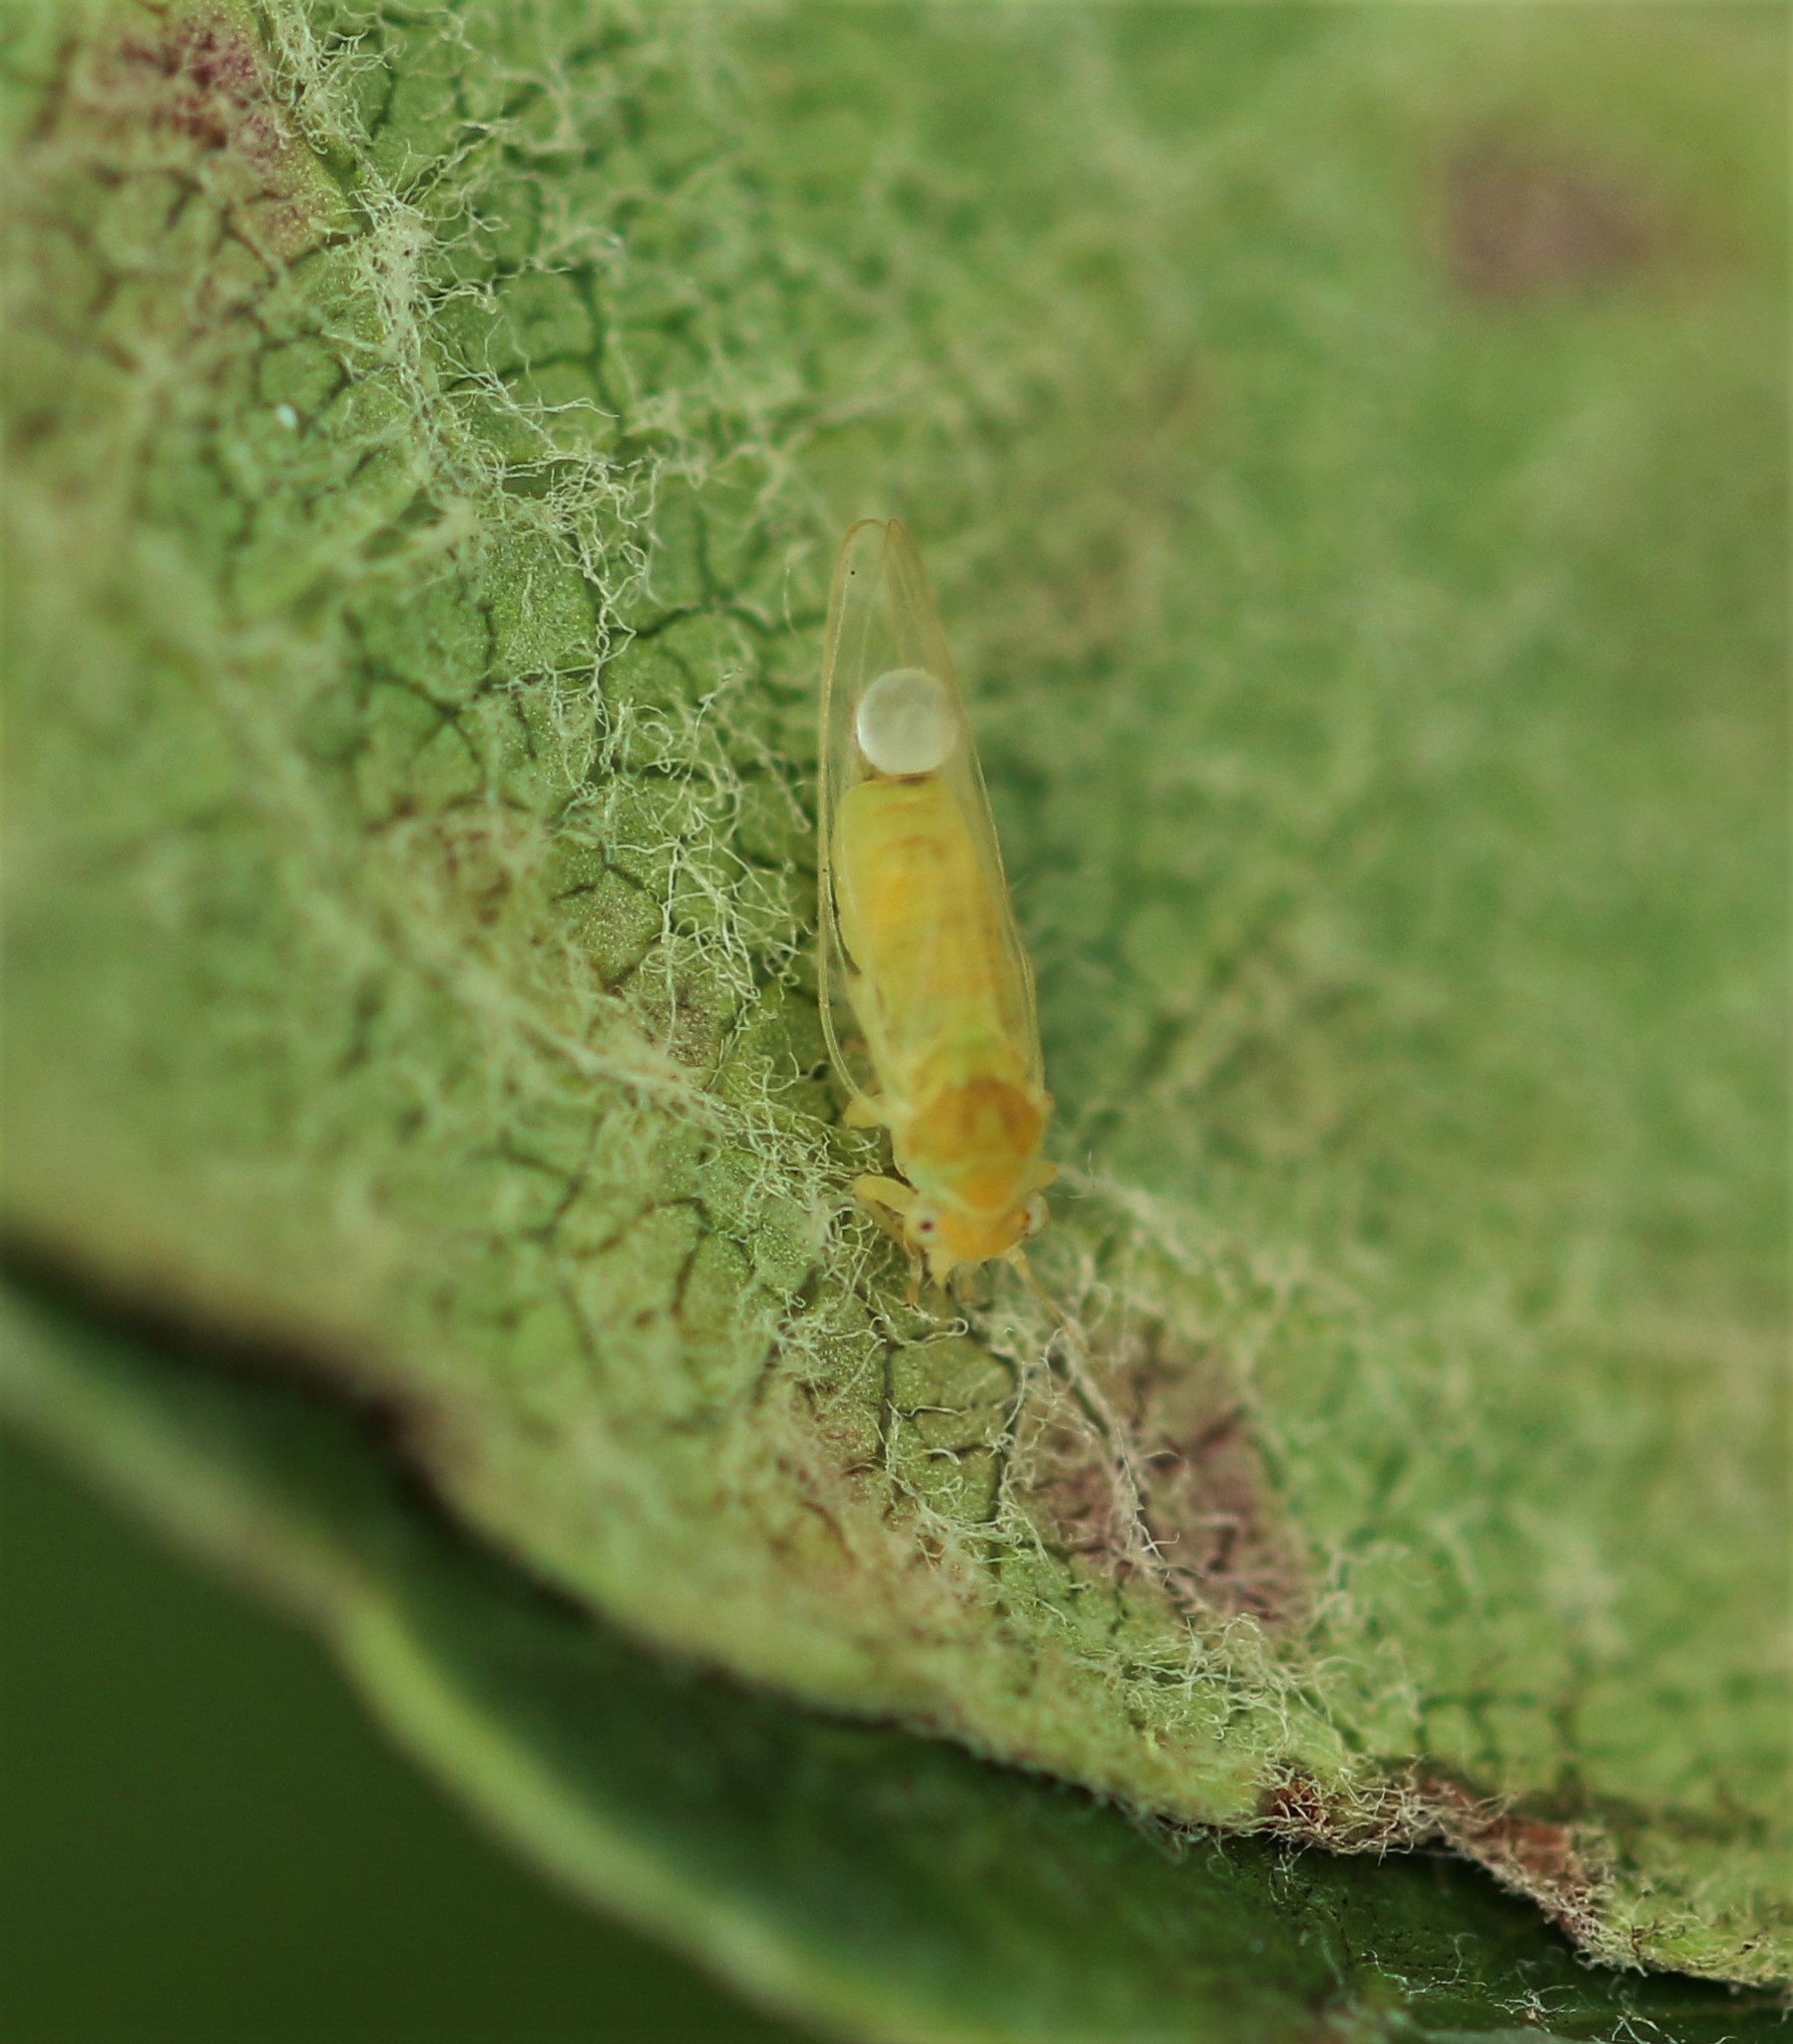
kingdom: Animalia
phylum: Arthropoda
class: Insecta
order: Hemiptera
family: Psyllidae
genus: Cacopsylla
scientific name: Cacopsylla mali
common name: Apple sucker
